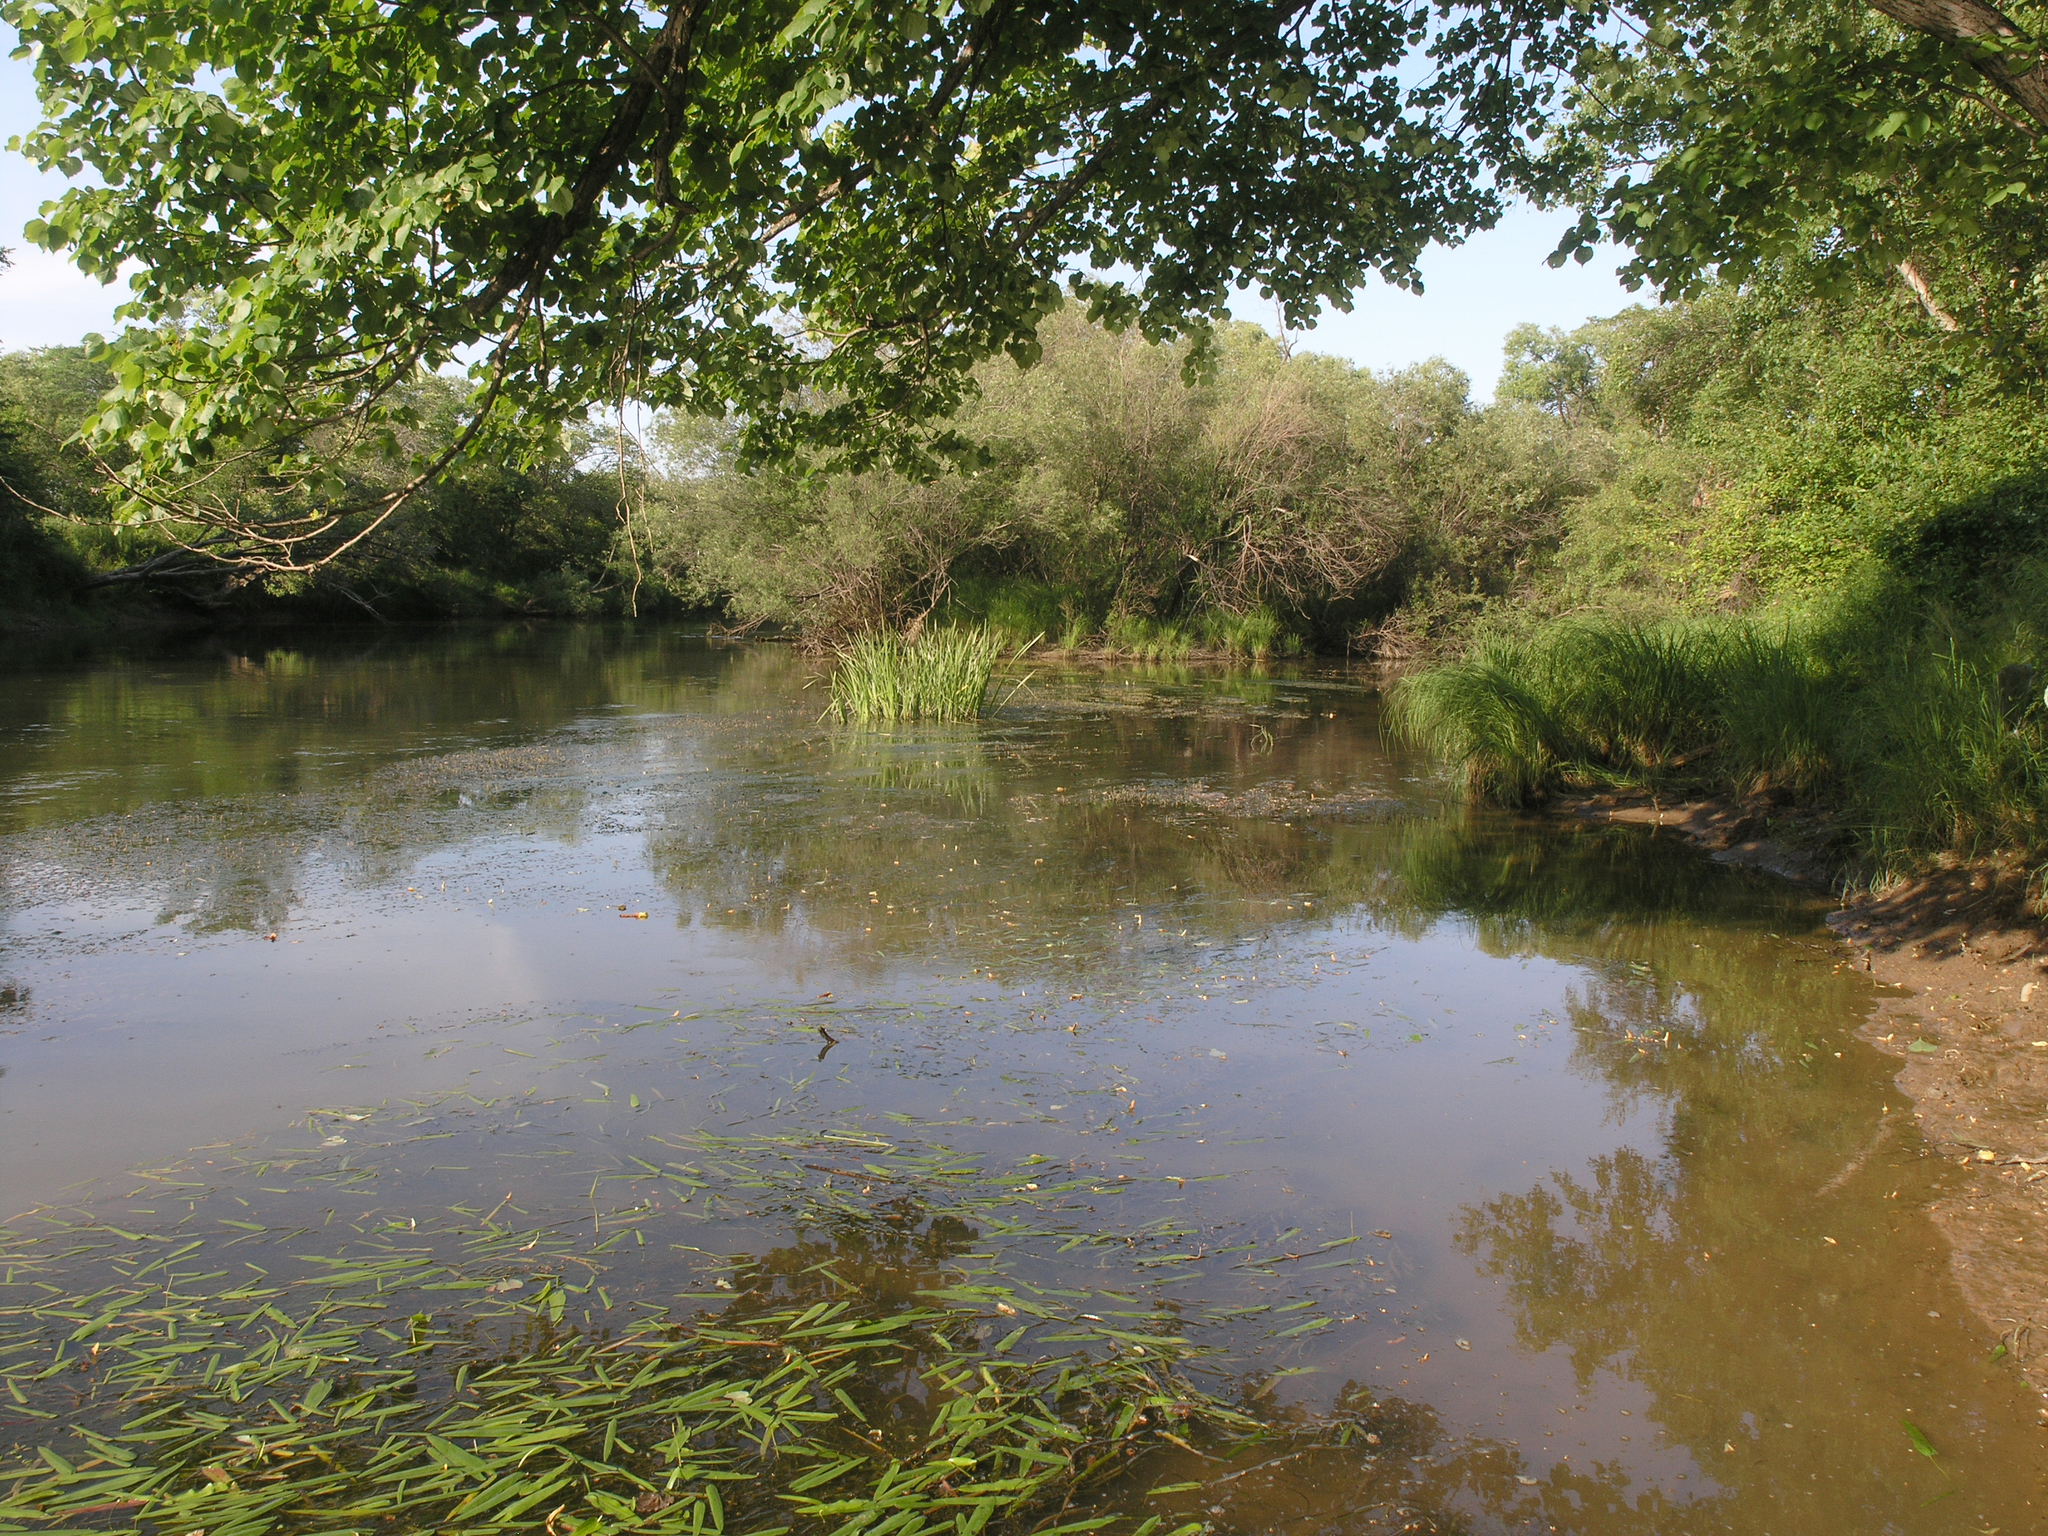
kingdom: Plantae
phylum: Tracheophyta
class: Liliopsida
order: Alismatales
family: Alismataceae
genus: Sagittaria
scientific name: Sagittaria natans
